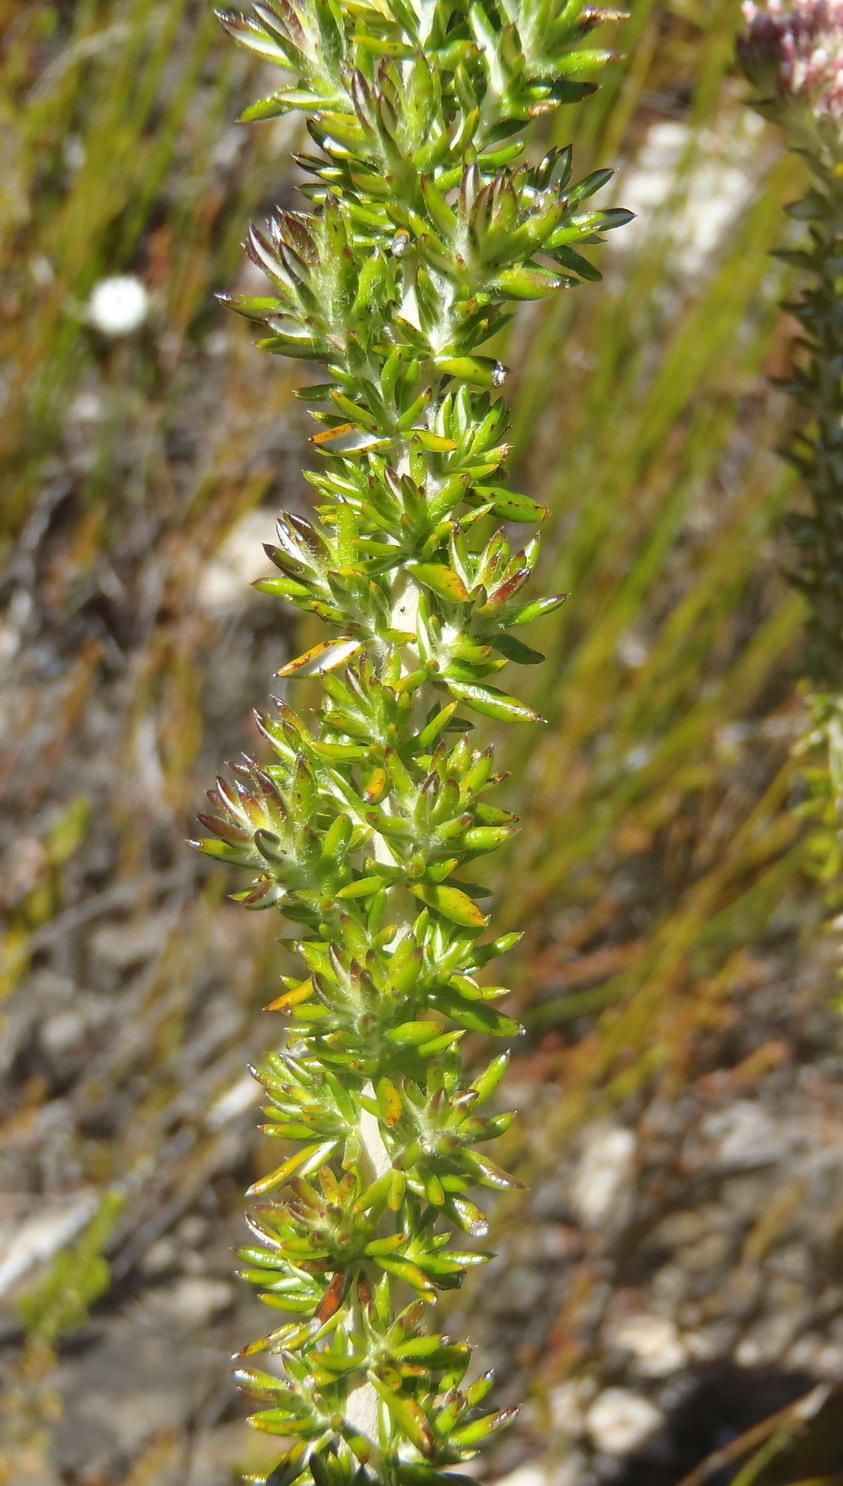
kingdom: Plantae
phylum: Tracheophyta
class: Magnoliopsida
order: Asterales
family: Asteraceae
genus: Metalasia
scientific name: Metalasia densa
